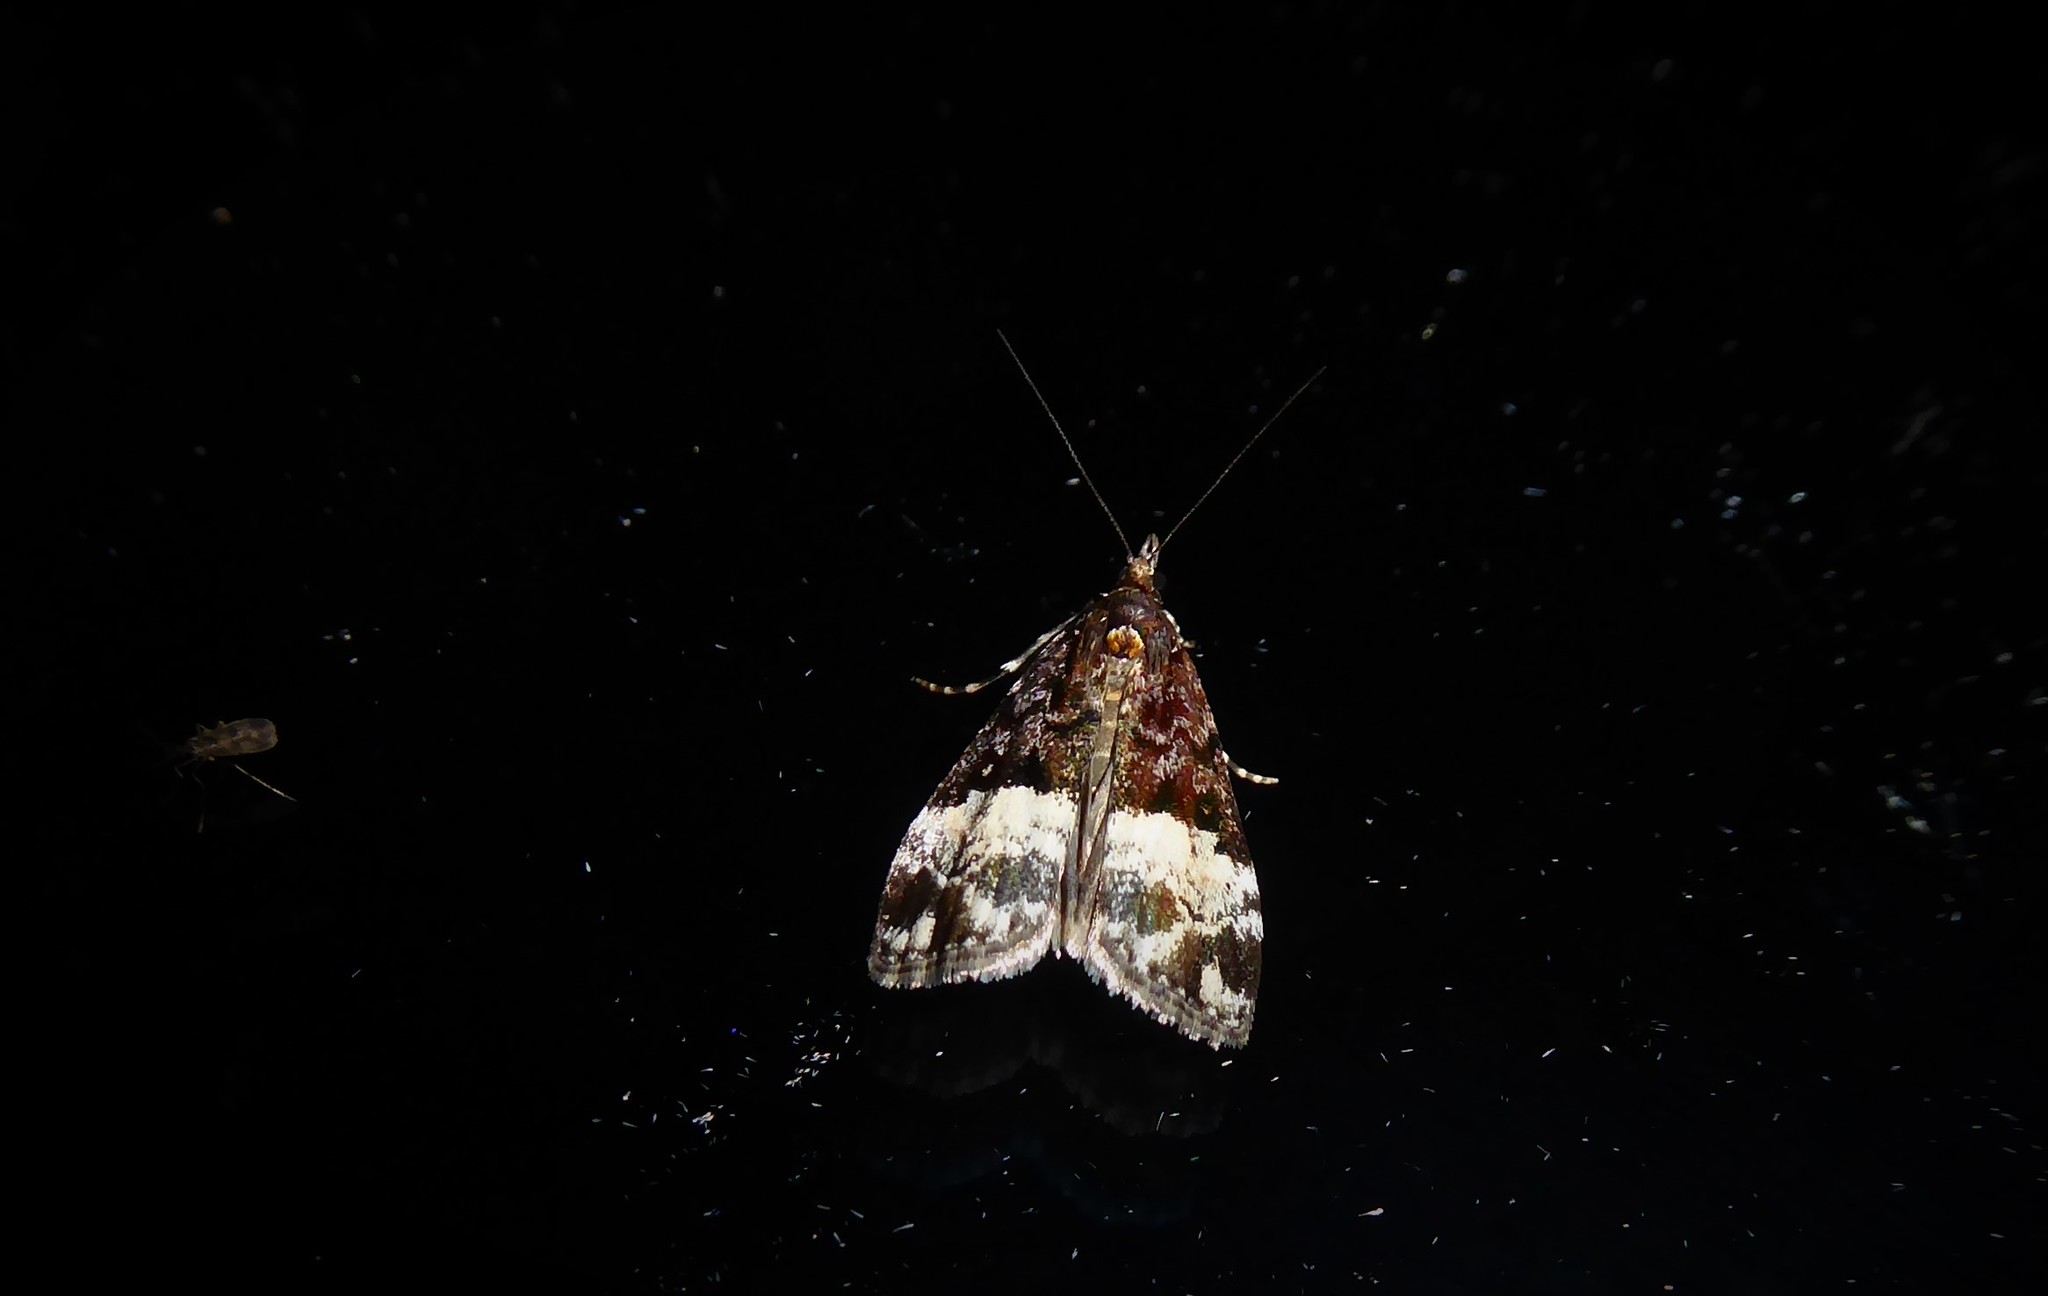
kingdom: Animalia
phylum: Arthropoda
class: Insecta
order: Lepidoptera
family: Crambidae
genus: Scoparia
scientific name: Scoparia minusculalis
